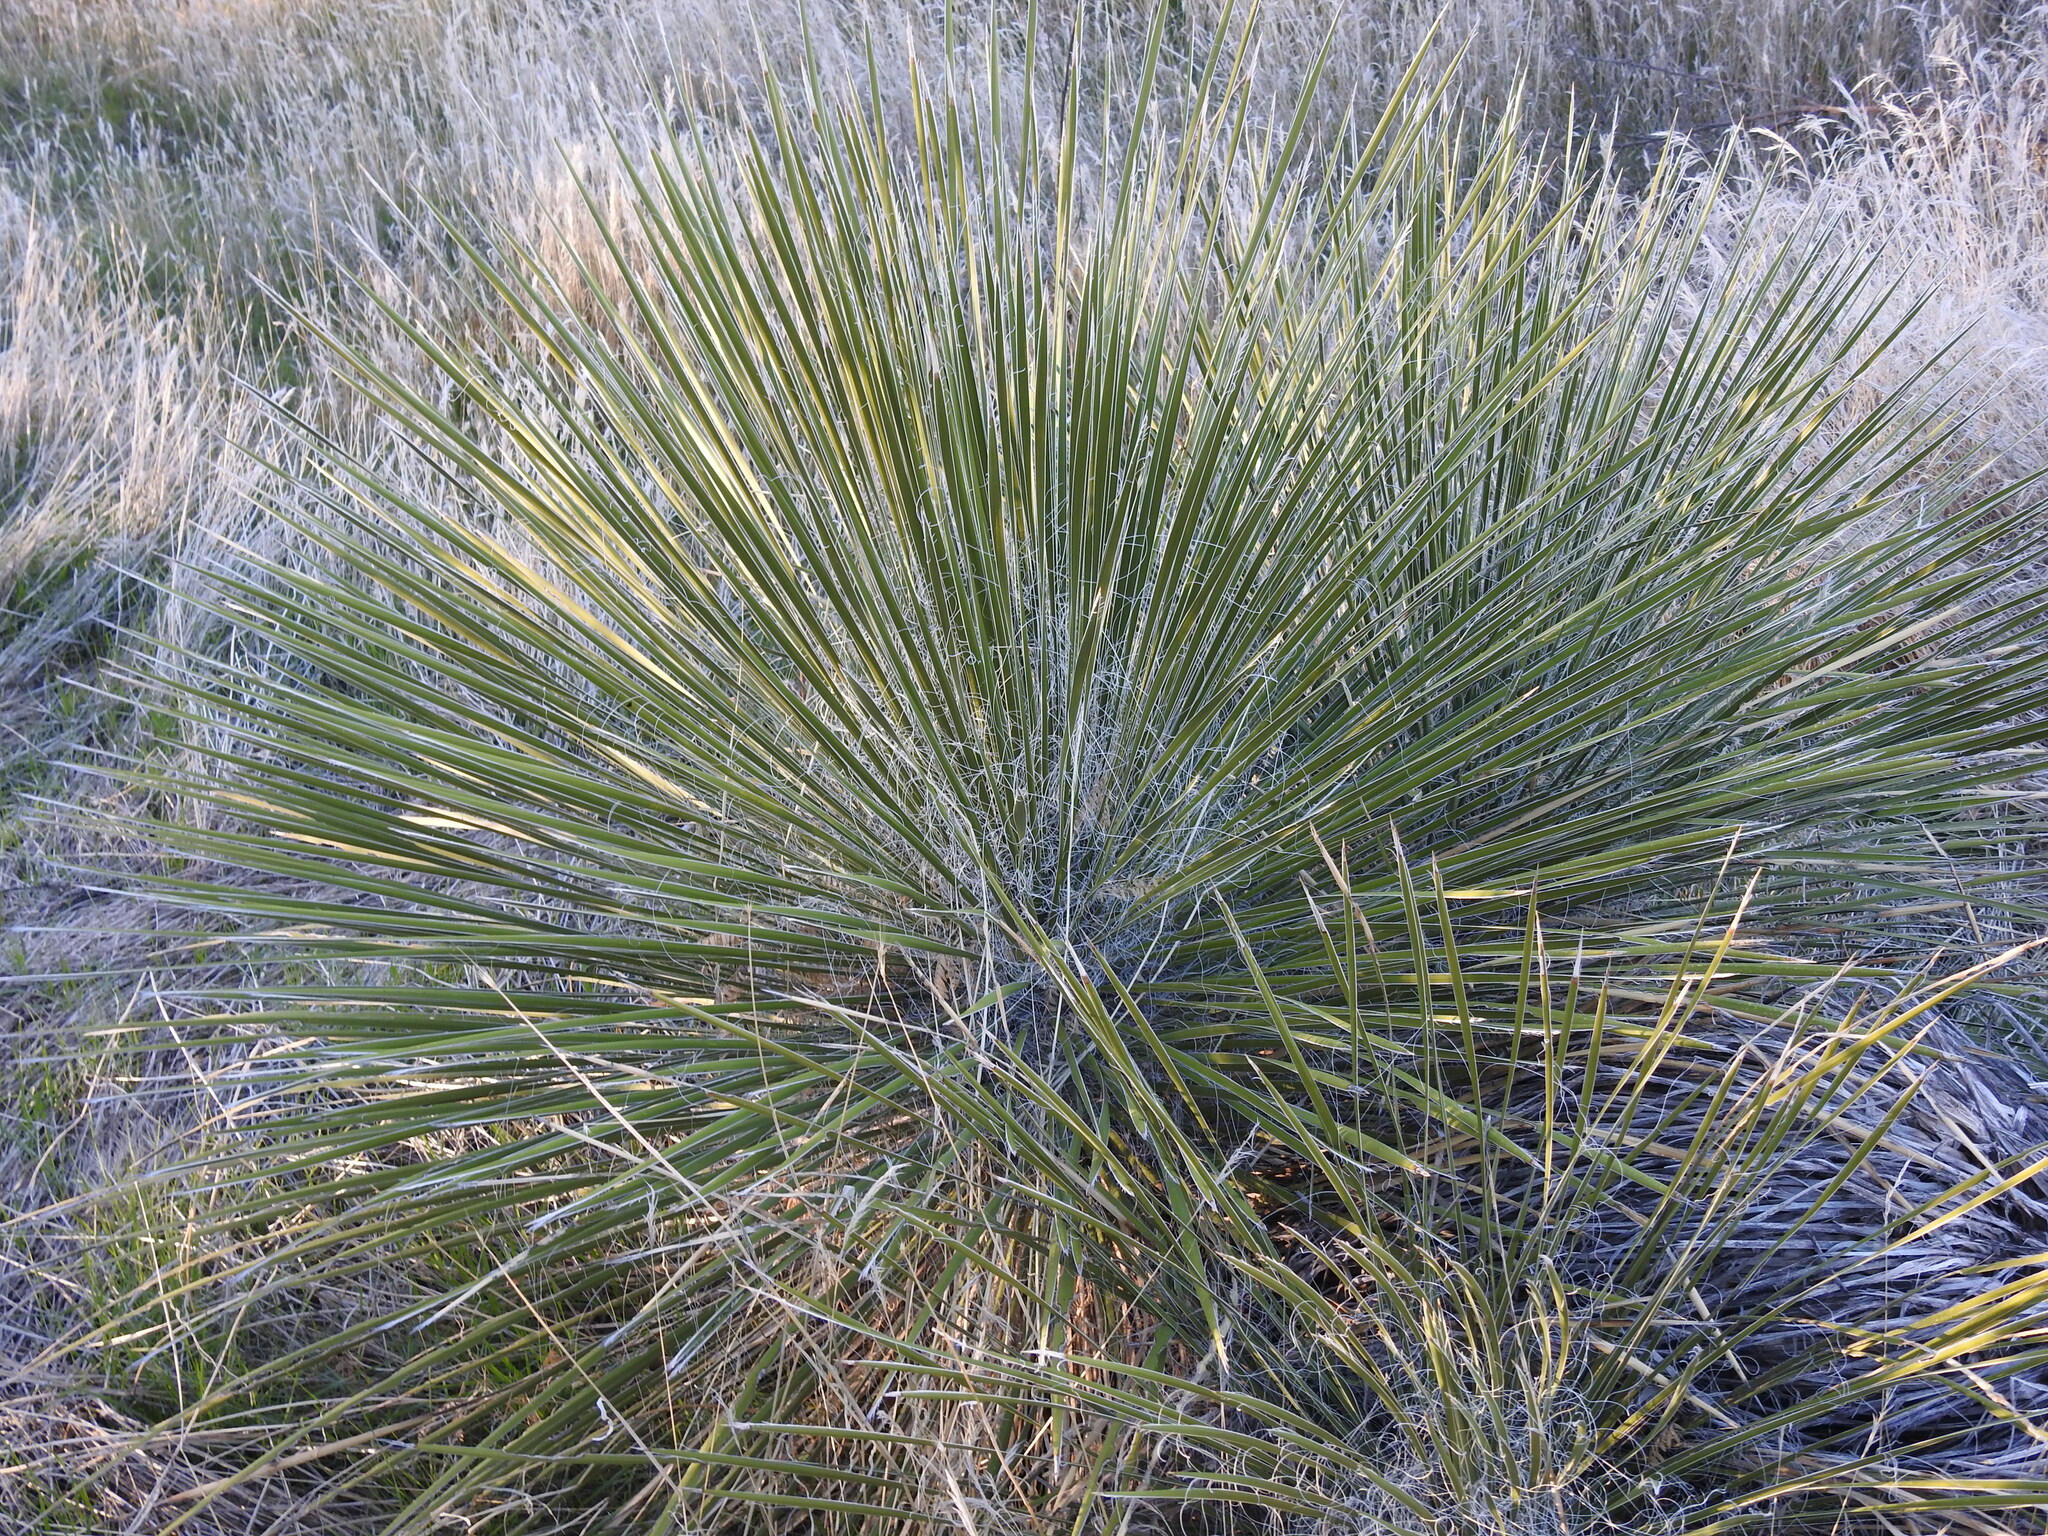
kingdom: Plantae
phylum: Tracheophyta
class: Liliopsida
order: Asparagales
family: Asparagaceae
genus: Yucca
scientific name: Yucca elata
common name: Palmella
